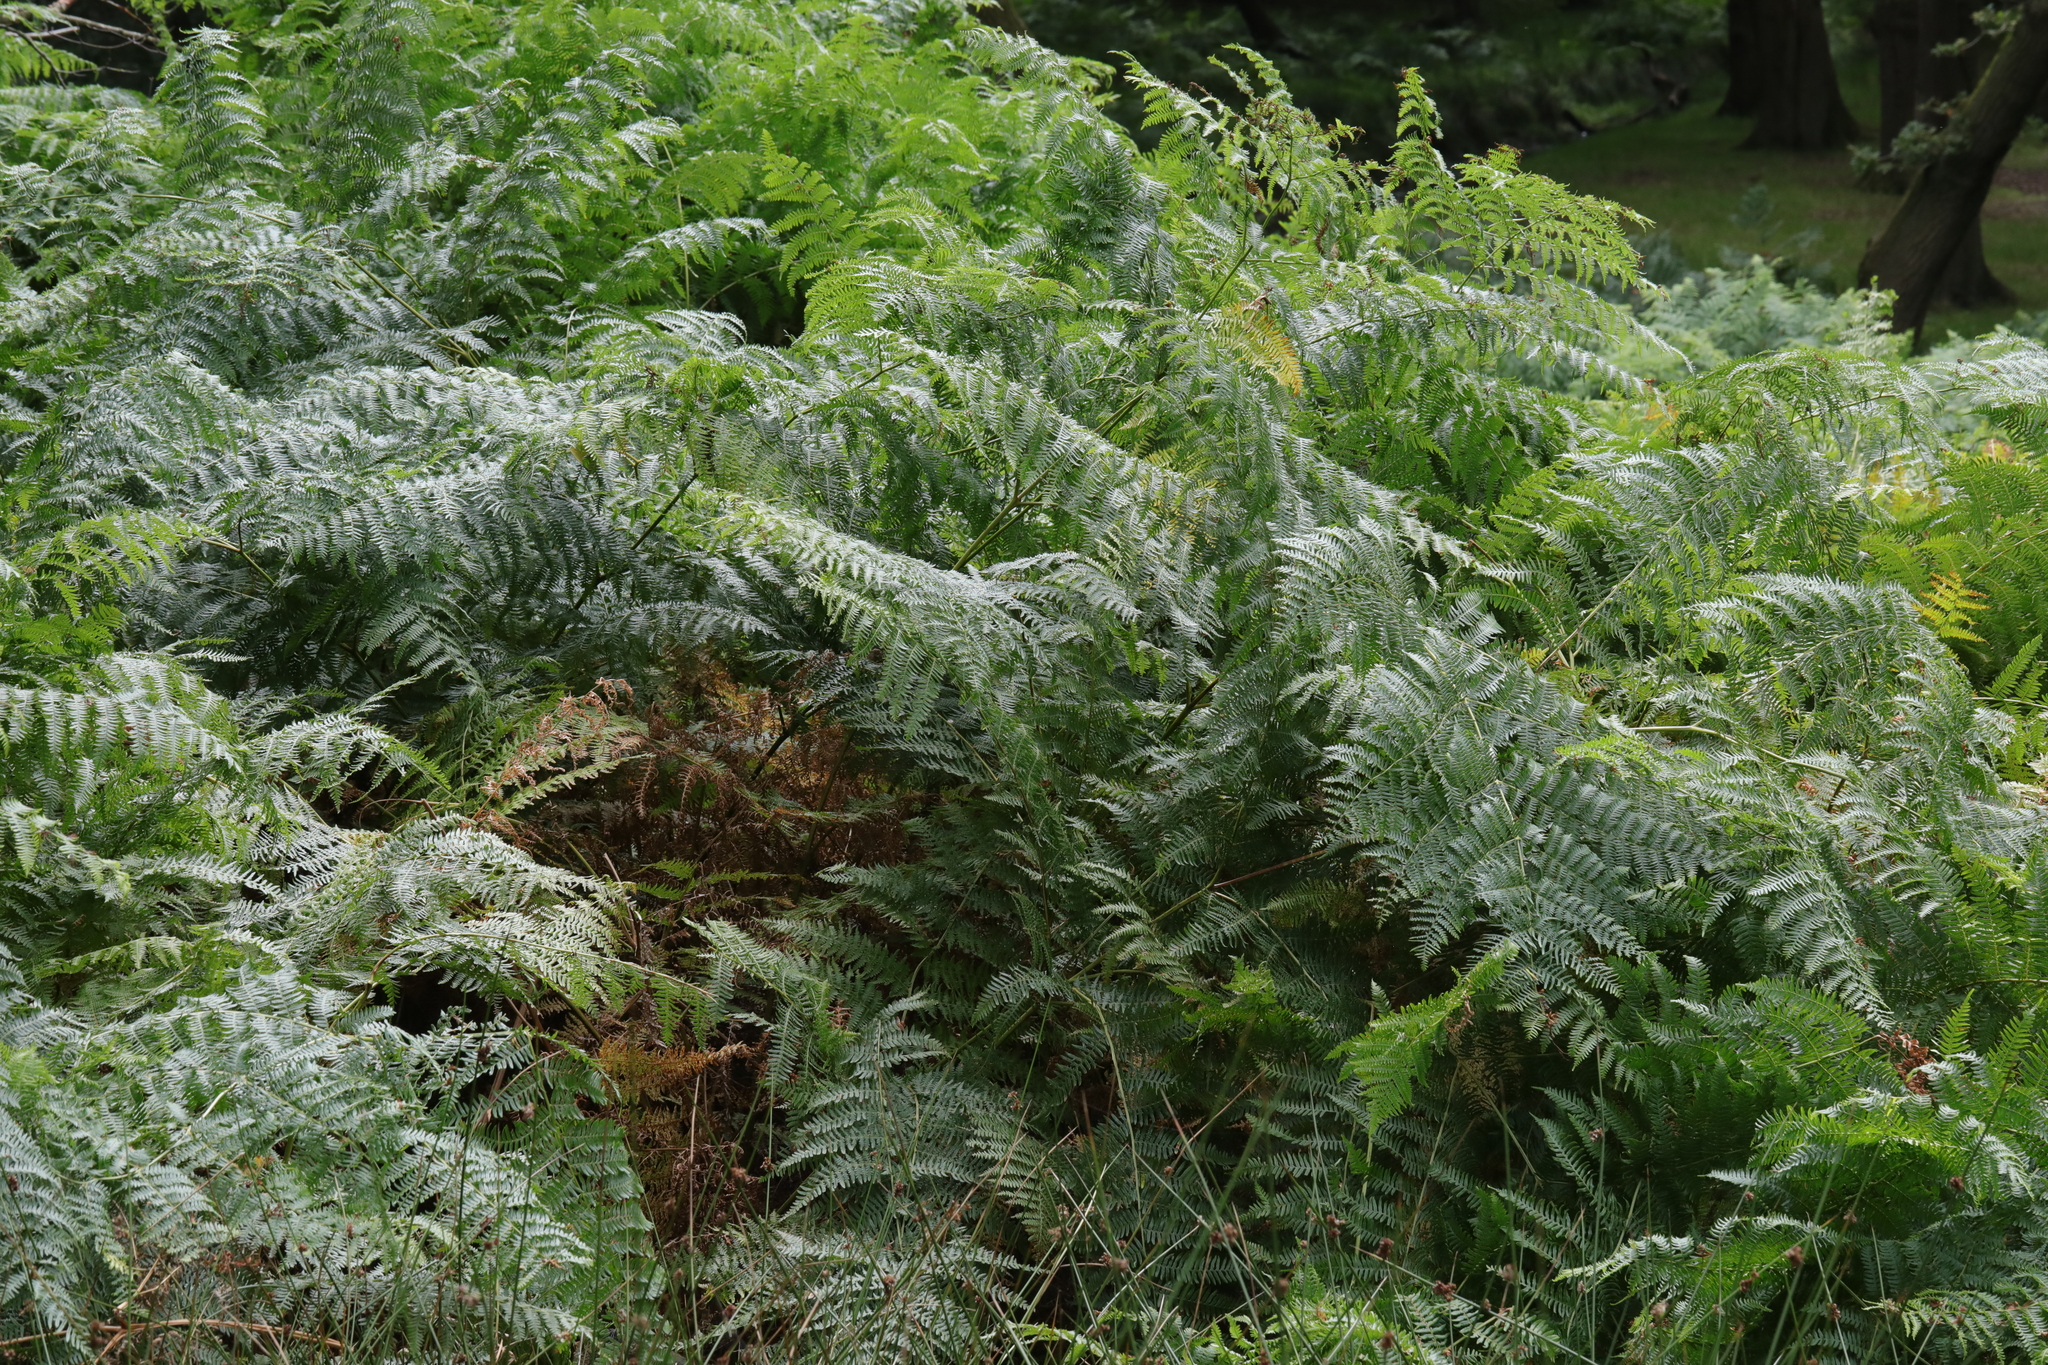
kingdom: Plantae
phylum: Tracheophyta
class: Polypodiopsida
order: Polypodiales
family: Dennstaedtiaceae
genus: Pteridium
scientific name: Pteridium aquilinum
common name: Bracken
